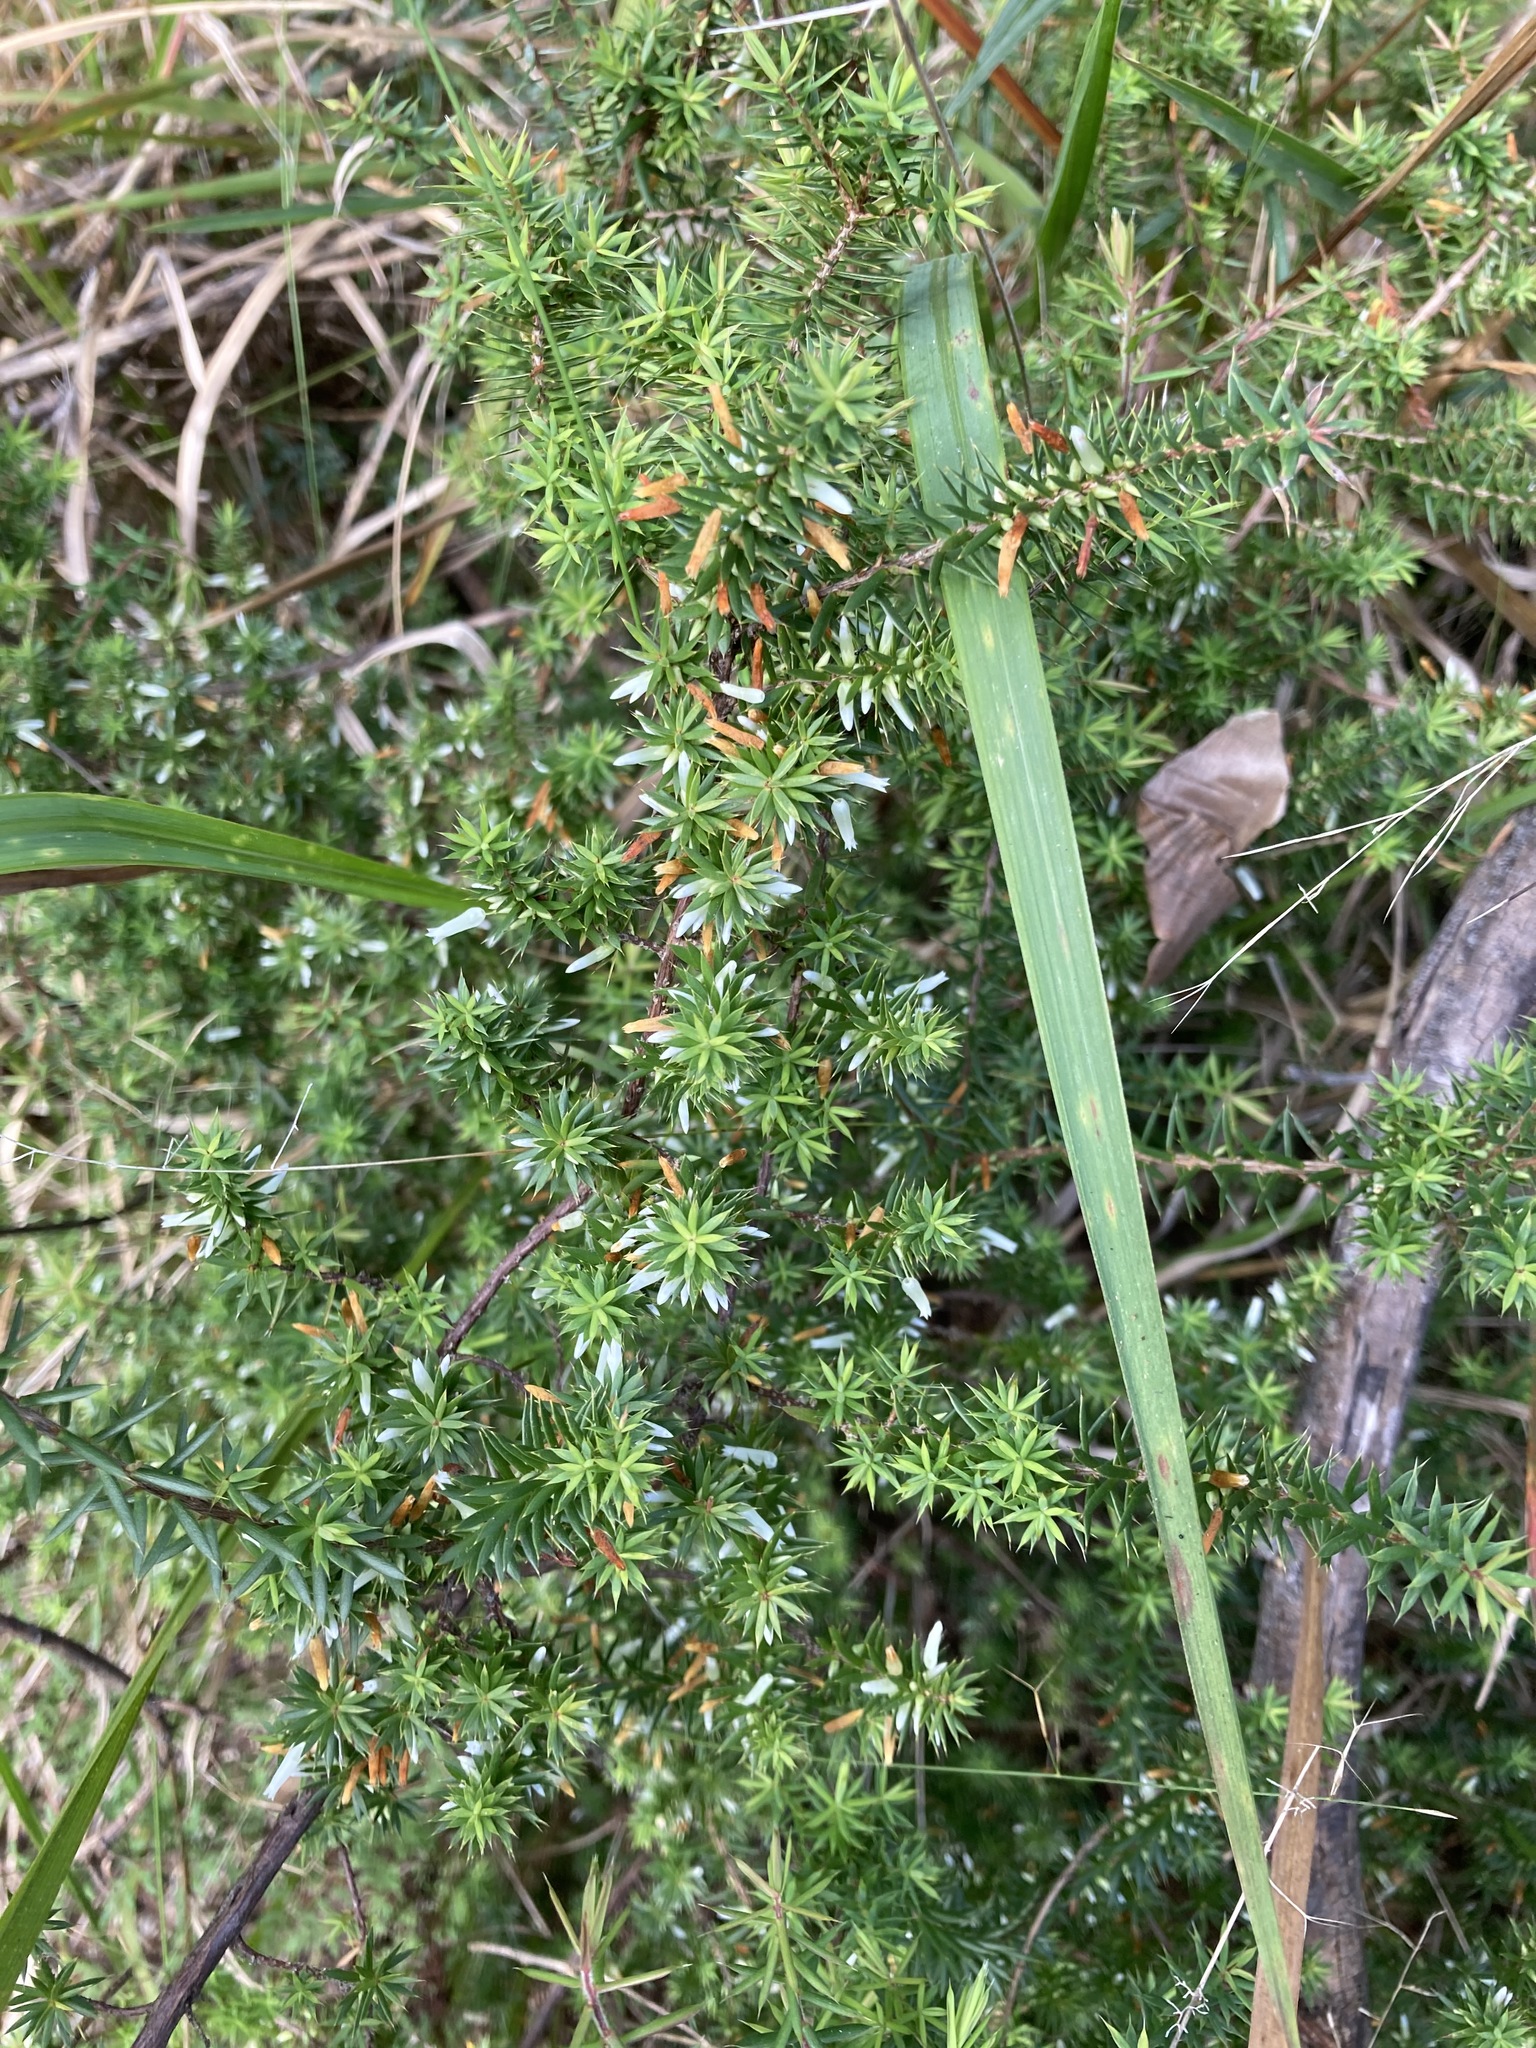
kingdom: Plantae
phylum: Tracheophyta
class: Magnoliopsida
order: Ericales
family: Ericaceae
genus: Styphelia
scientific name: Styphelia sieberi
